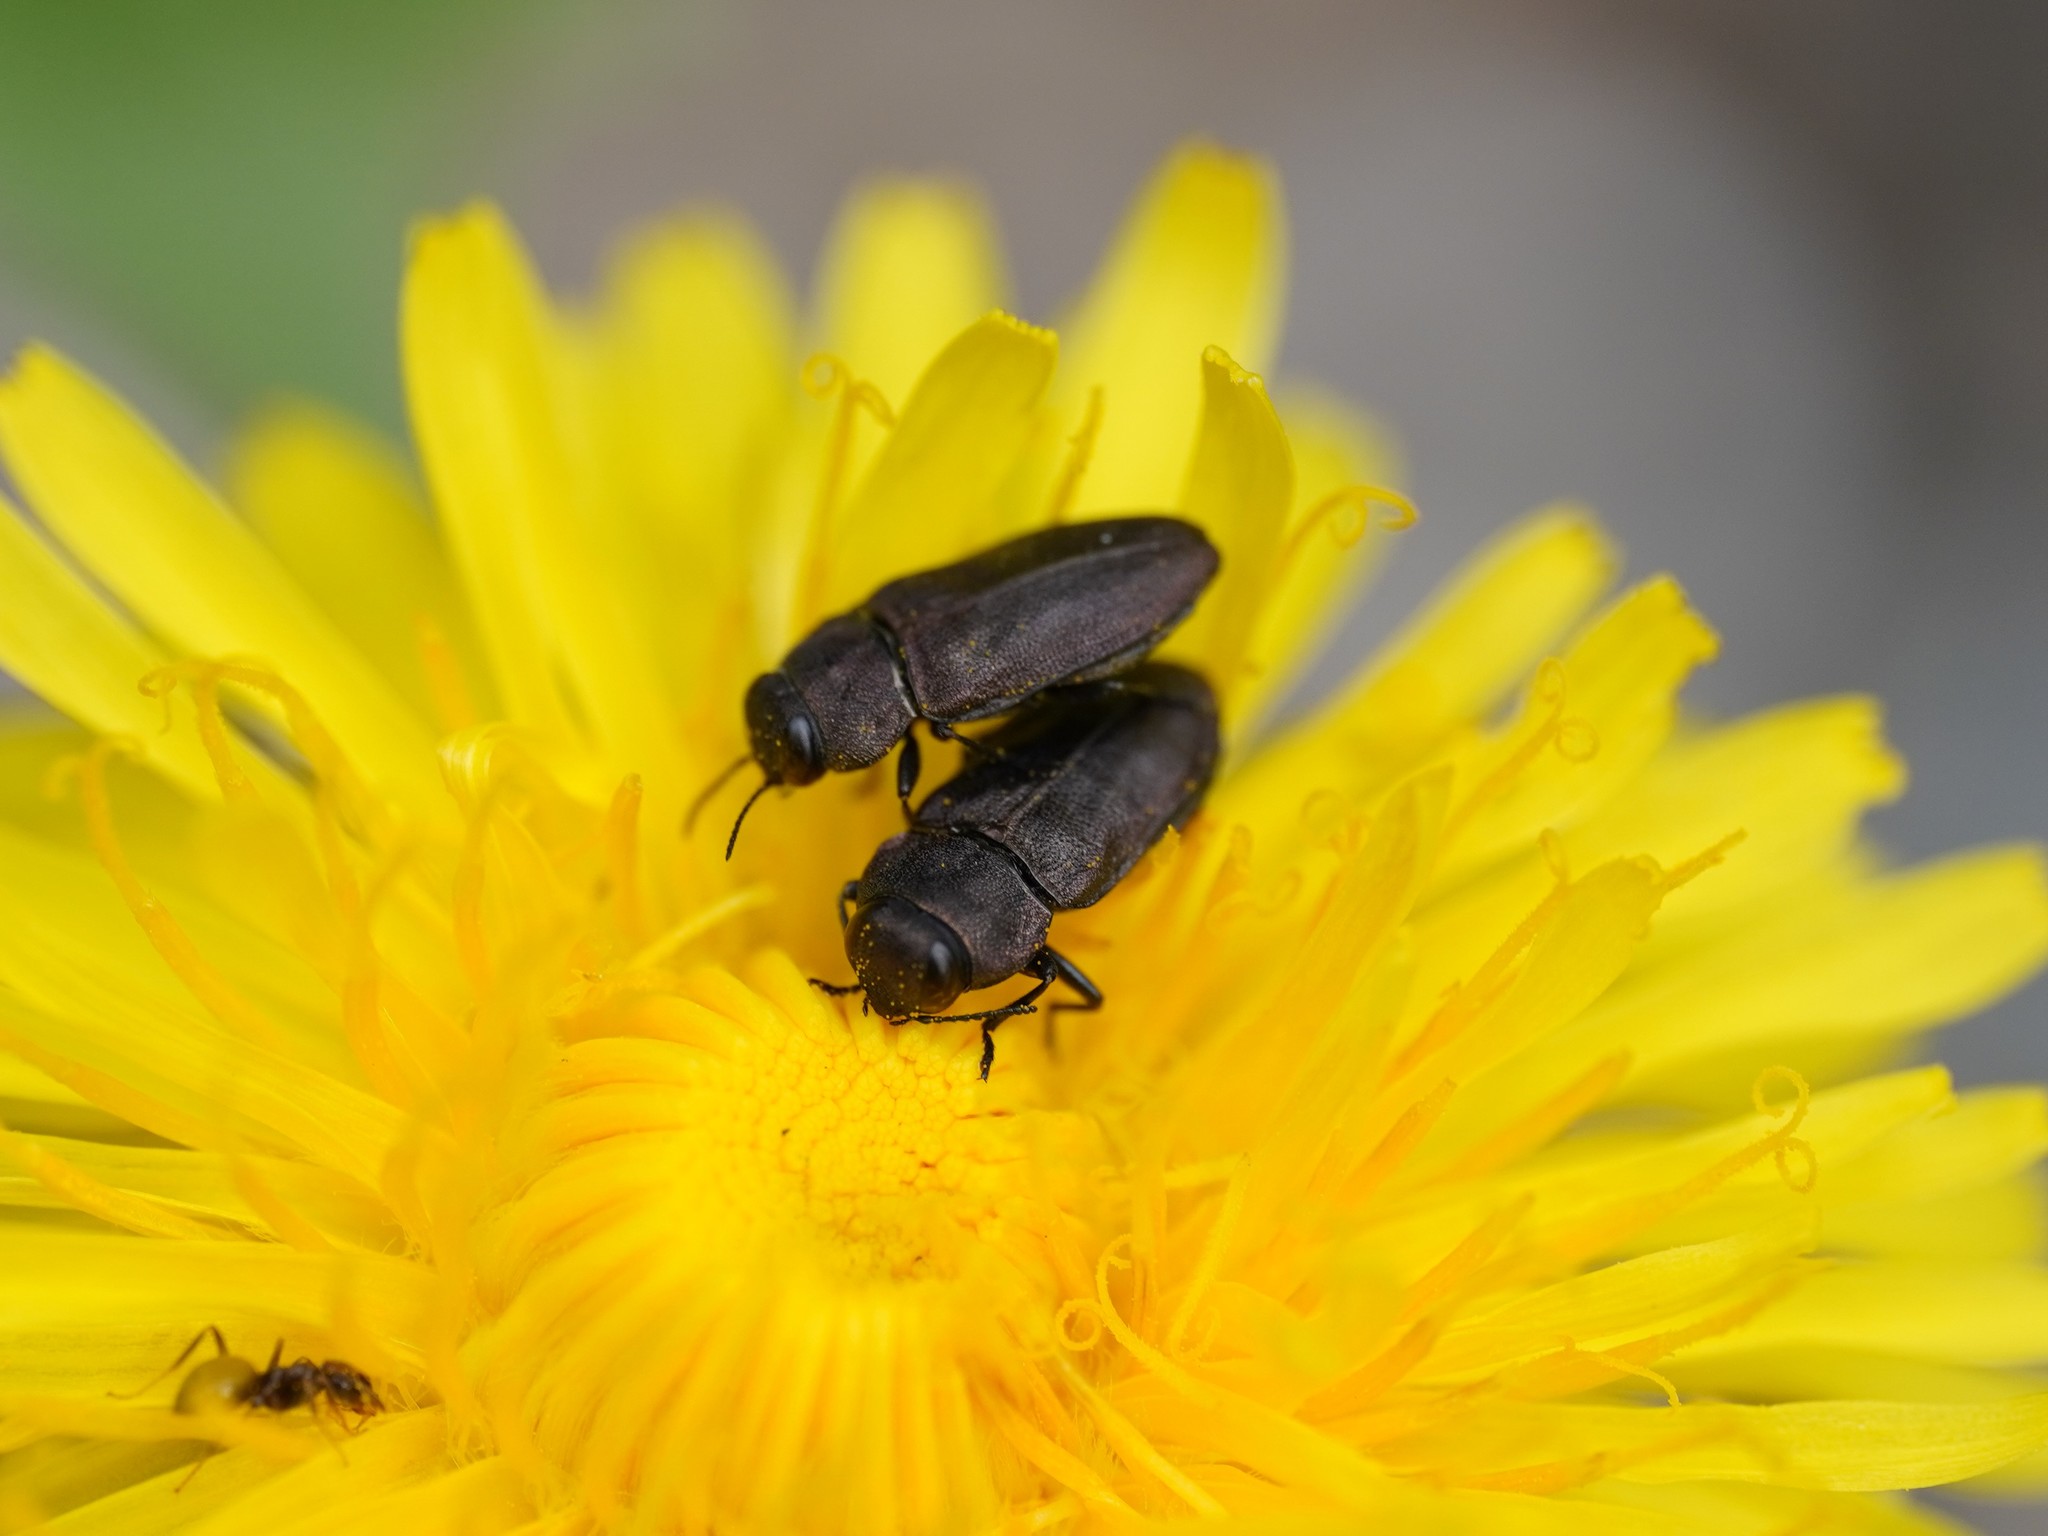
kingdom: Animalia
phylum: Arthropoda
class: Insecta
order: Coleoptera
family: Buprestidae
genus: Anthaxia
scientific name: Anthaxia helvetica
